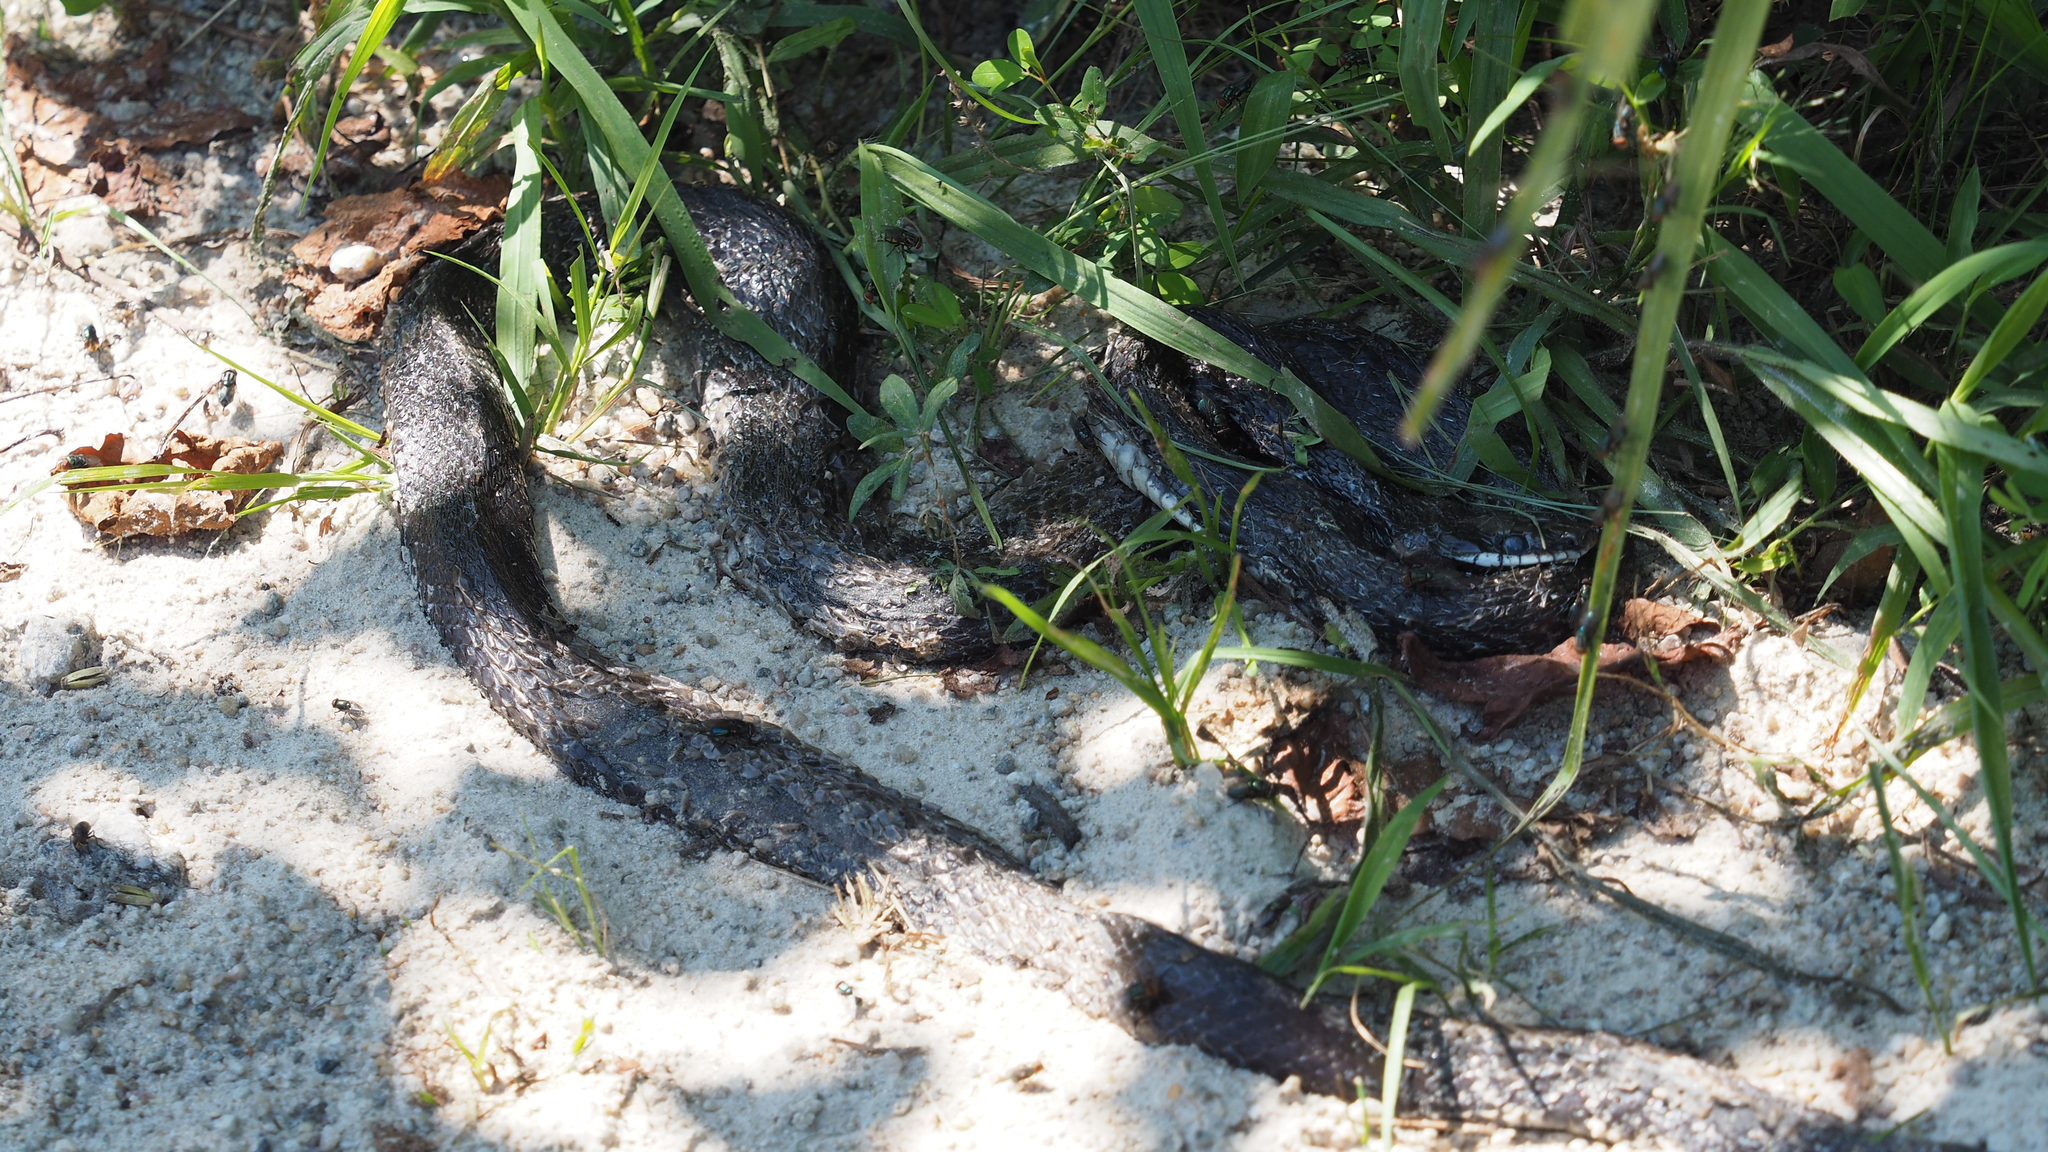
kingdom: Animalia
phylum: Chordata
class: Squamata
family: Colubridae
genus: Pantherophis
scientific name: Pantherophis alleghaniensis
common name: Eastern rat snake
